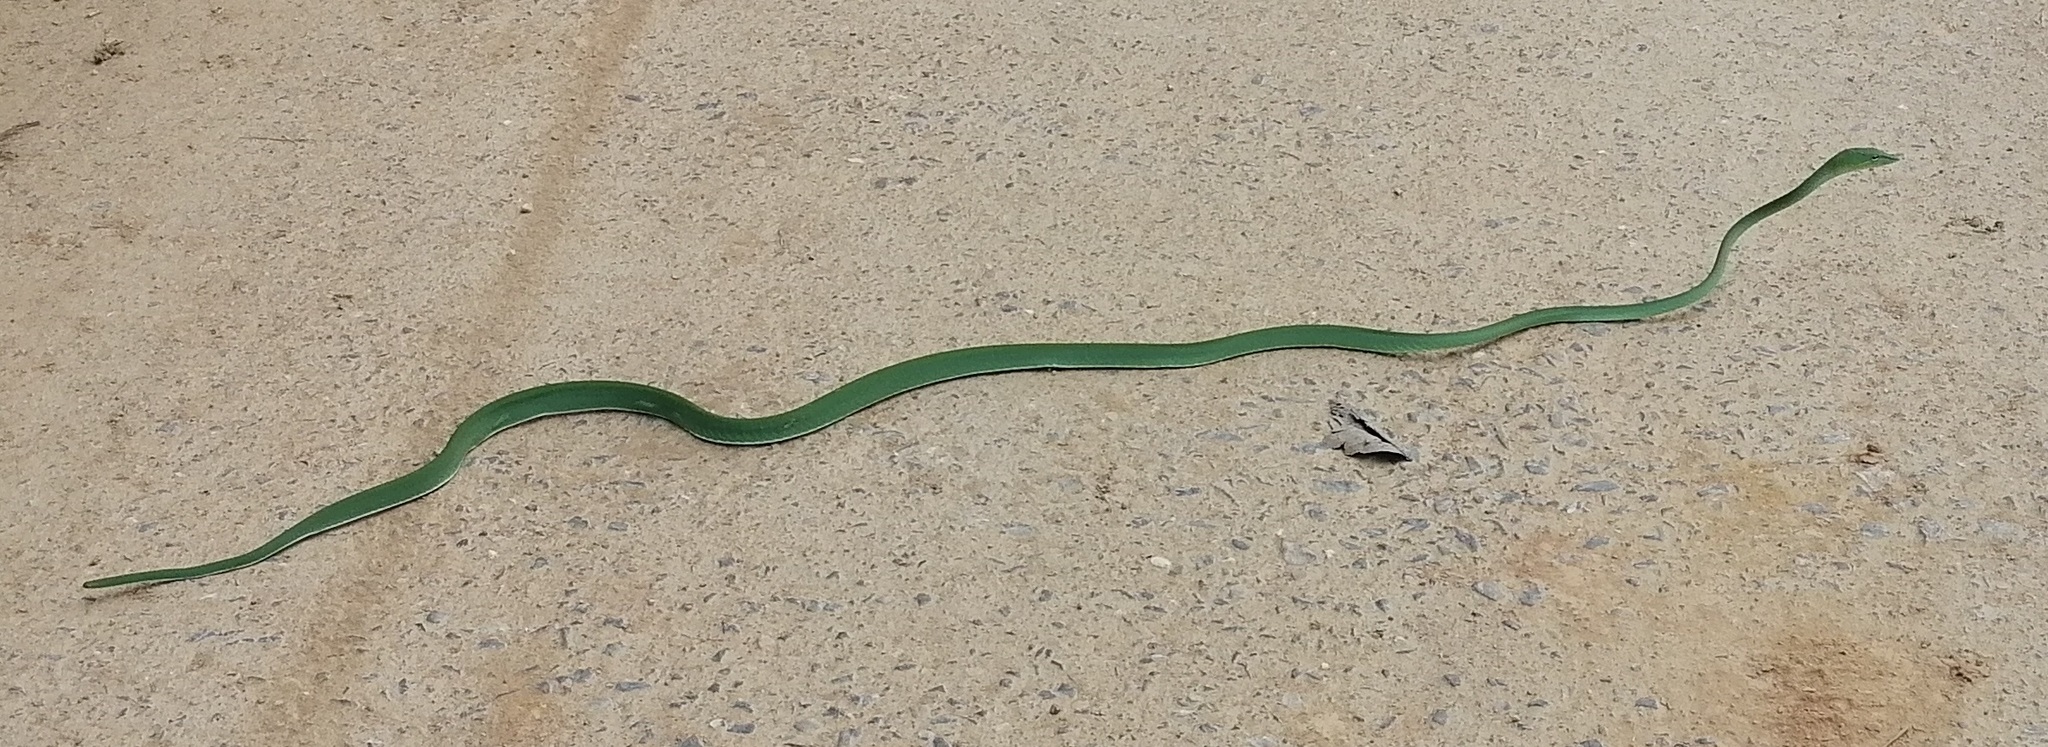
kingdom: Animalia
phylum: Chordata
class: Squamata
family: Colubridae
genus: Ahaetulla
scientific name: Ahaetulla prasina
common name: Oriental whip snake
